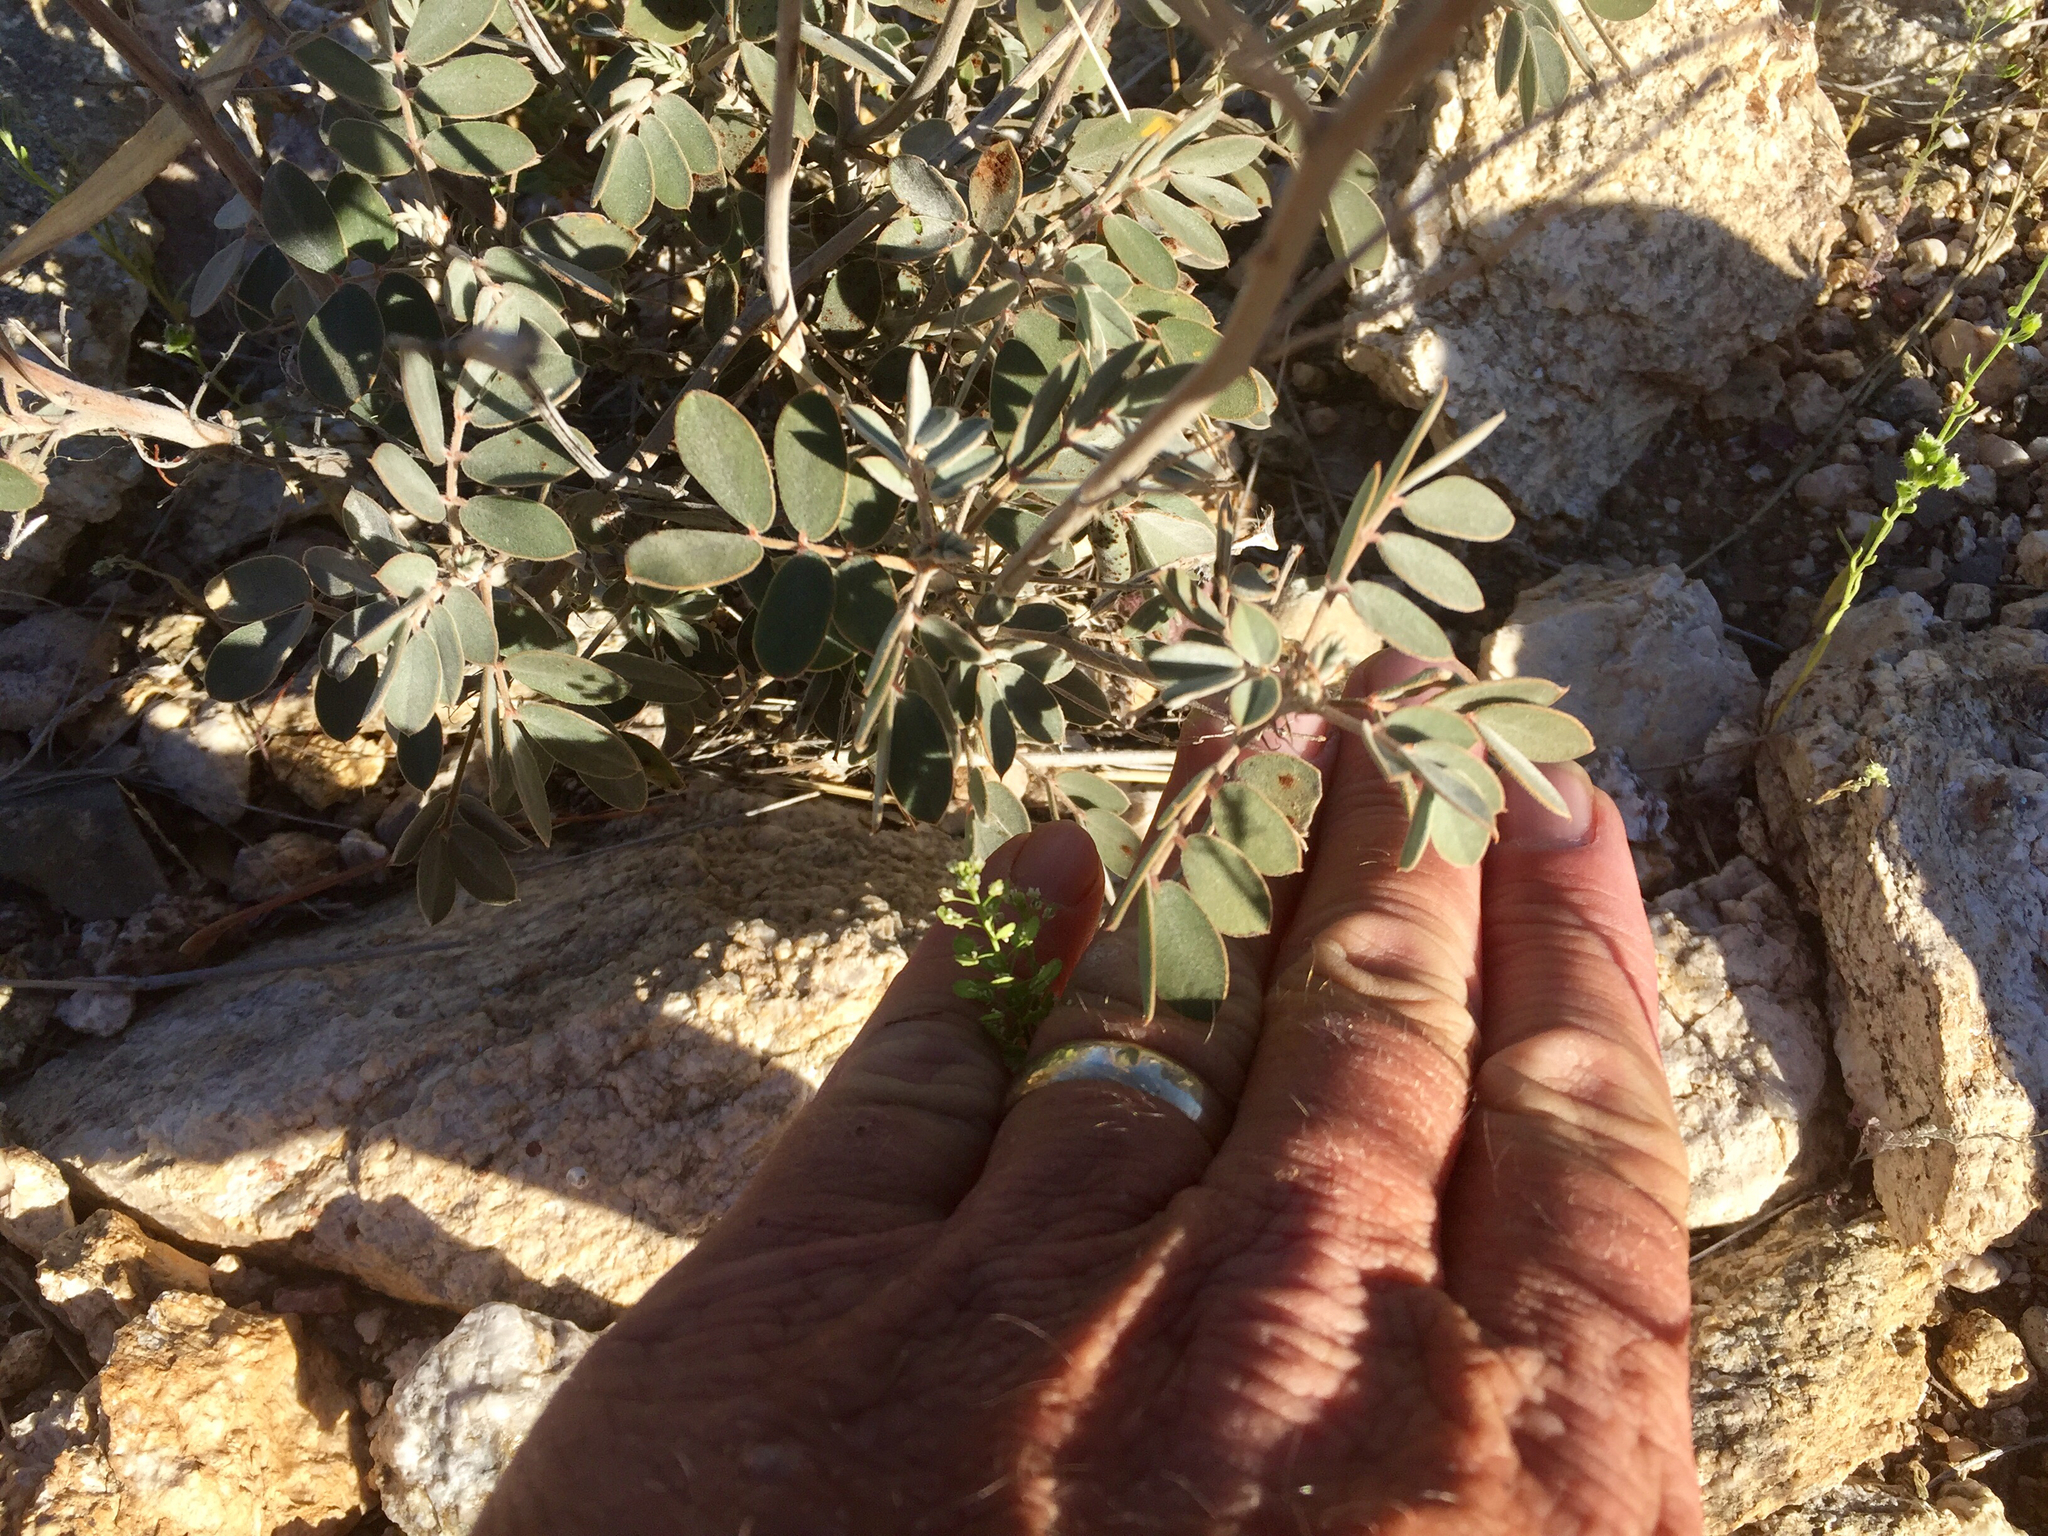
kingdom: Plantae
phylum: Tracheophyta
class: Magnoliopsida
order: Fabales
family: Fabaceae
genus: Senna
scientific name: Senna covesii
